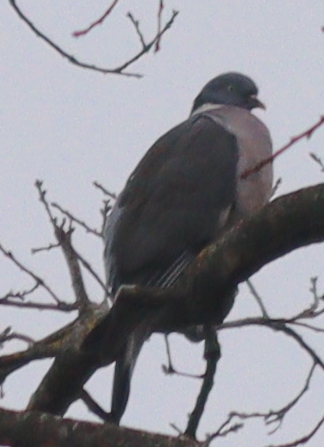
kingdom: Animalia
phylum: Chordata
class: Aves
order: Columbiformes
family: Columbidae
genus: Columba
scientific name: Columba palumbus
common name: Common wood pigeon
